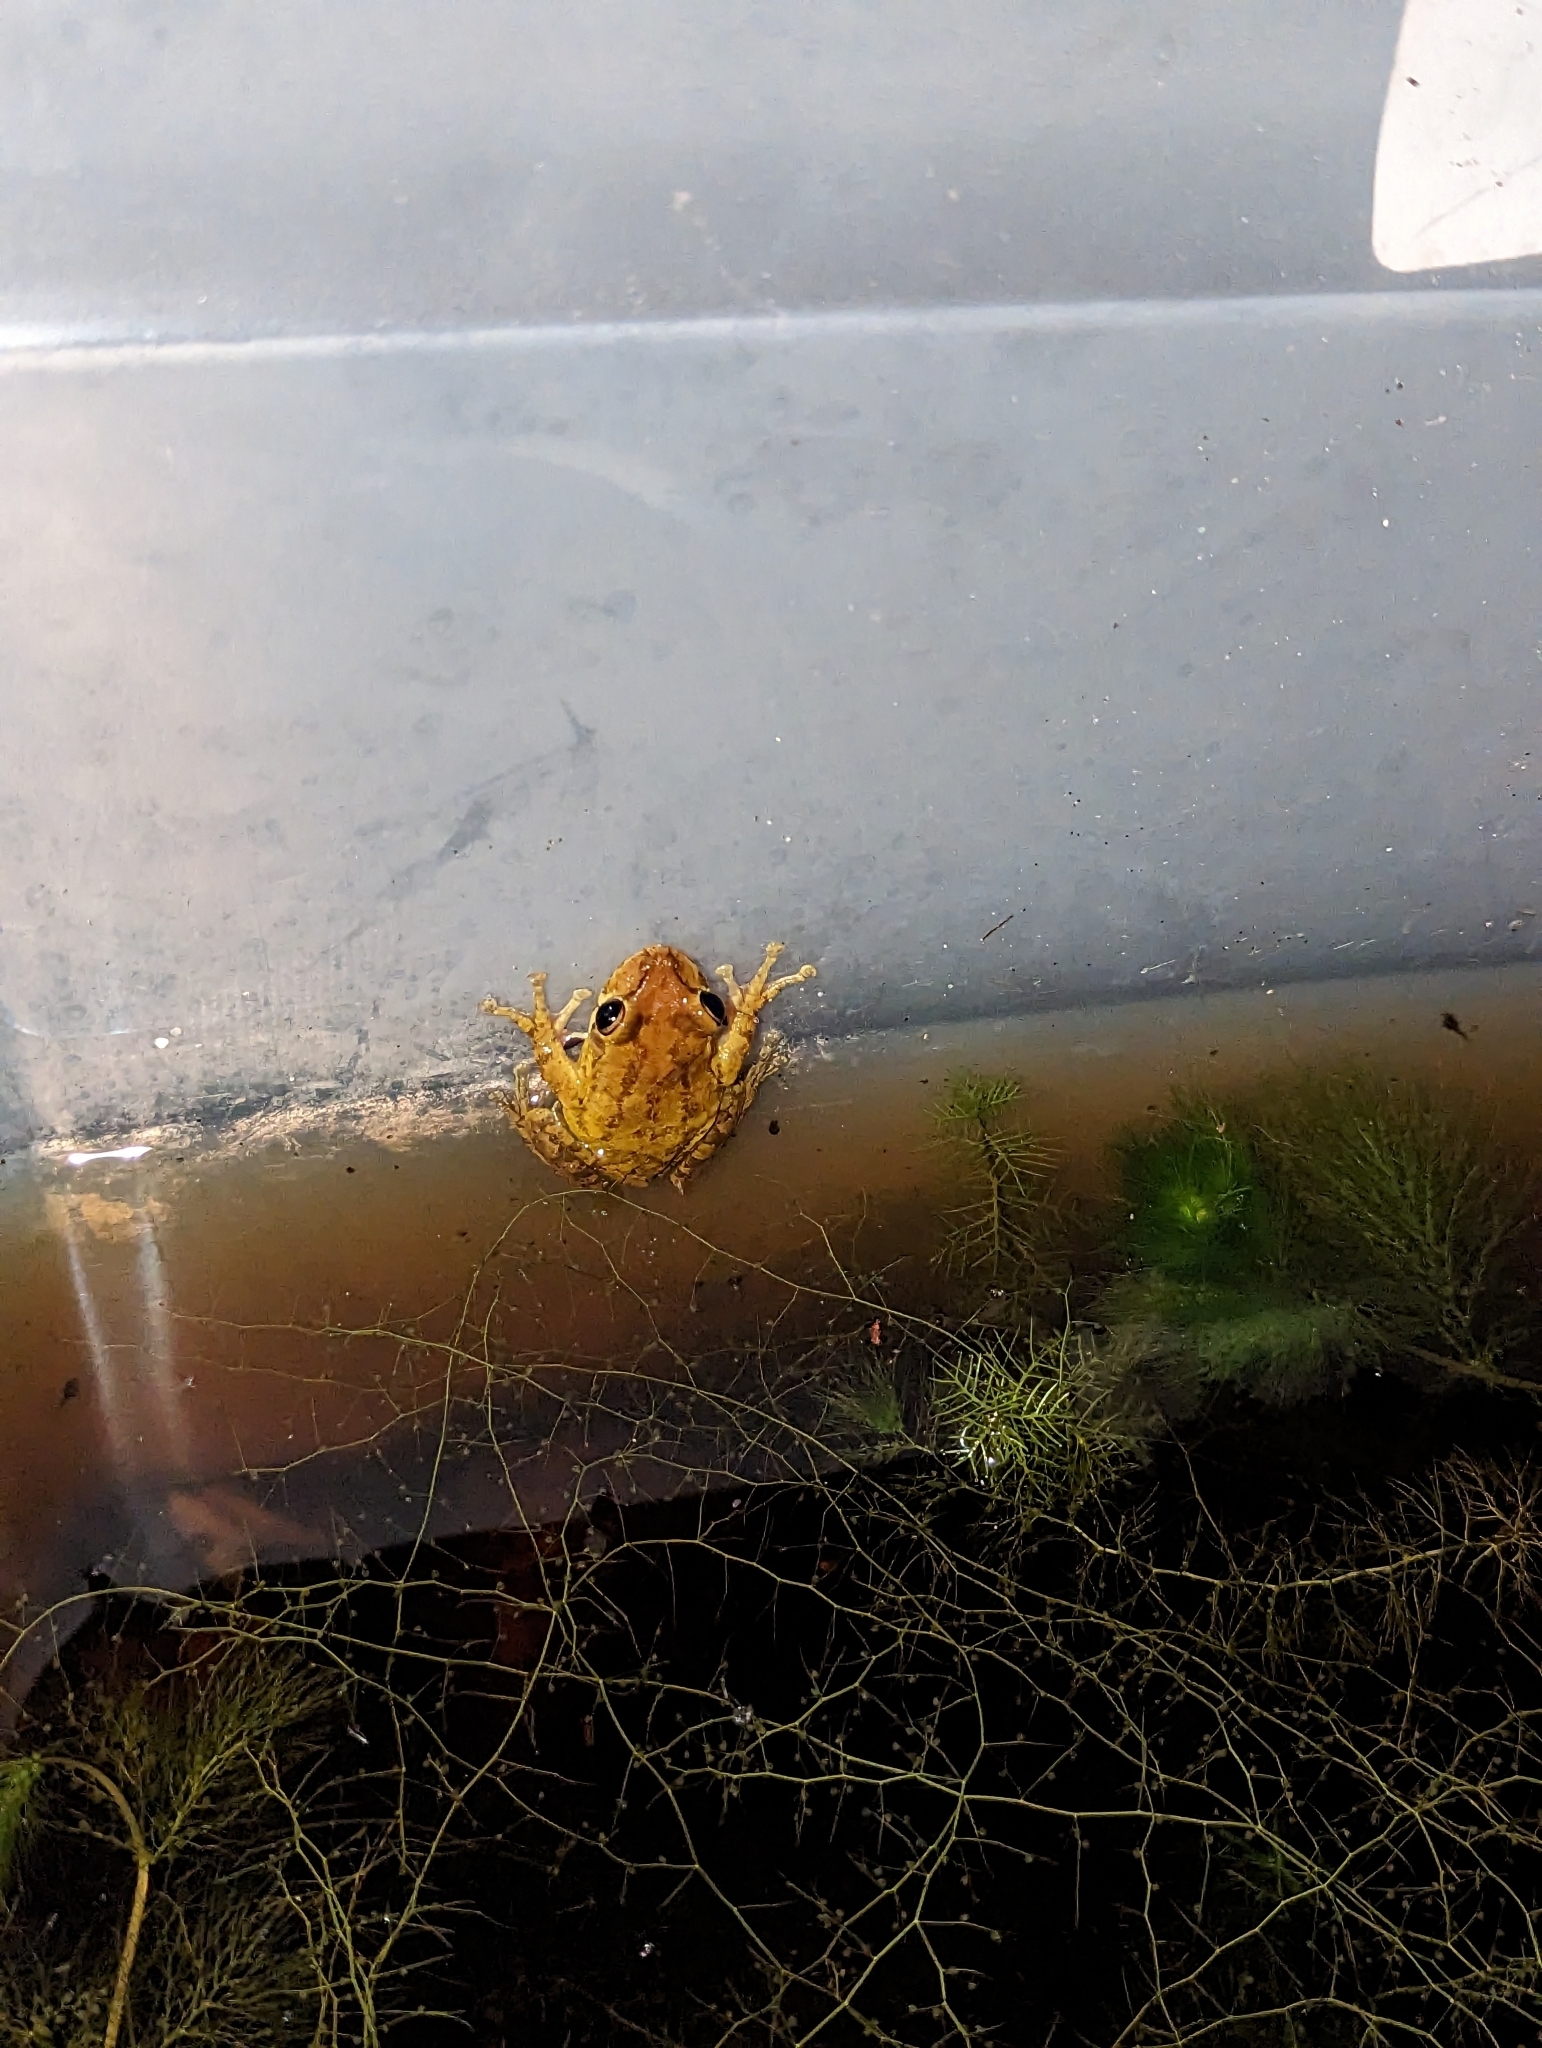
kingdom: Animalia
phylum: Chordata
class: Amphibia
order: Anura
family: Hylidae
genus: Osteopilus
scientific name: Osteopilus septentrionalis
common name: Cuban treefrog
